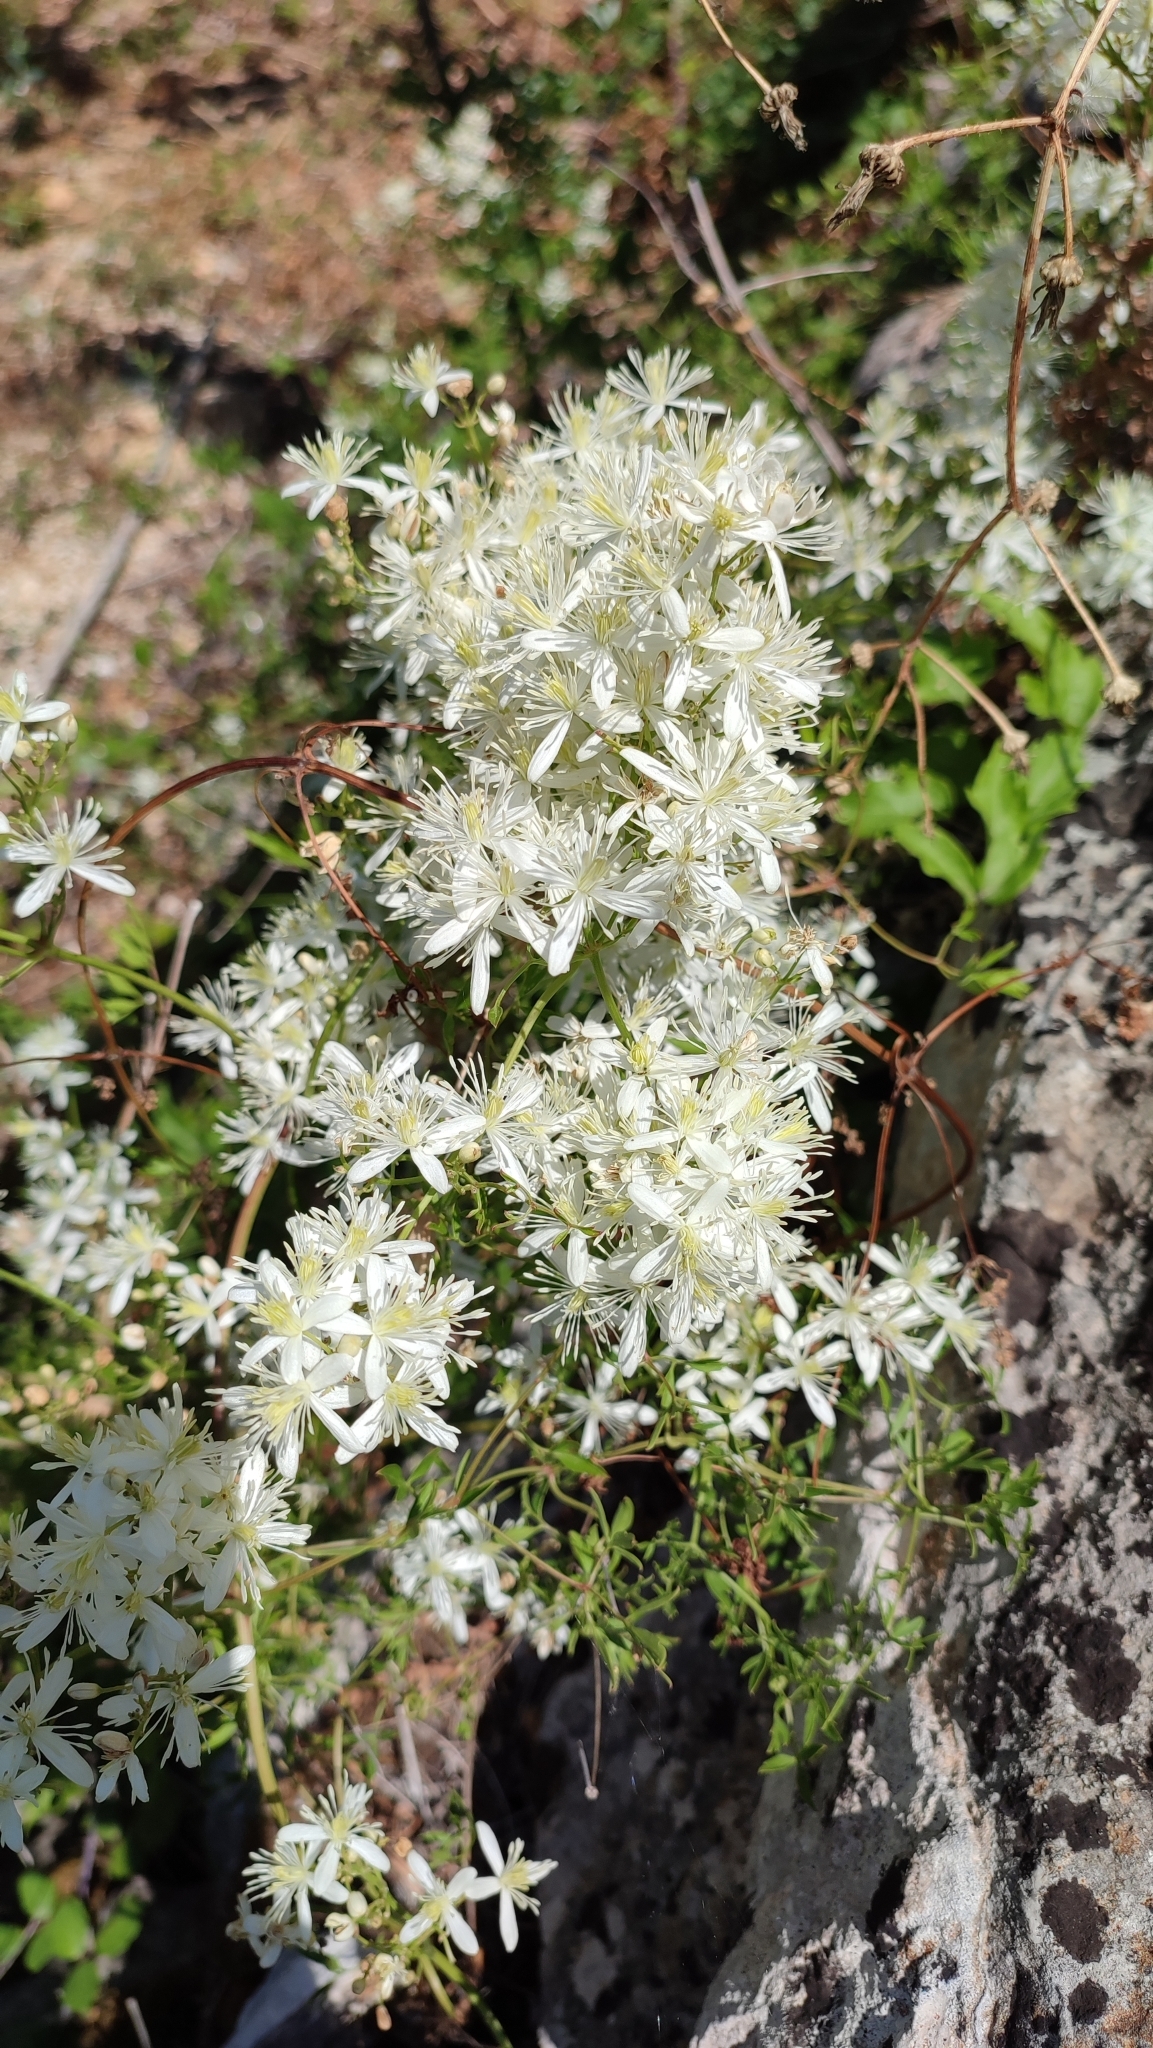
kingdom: Plantae
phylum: Tracheophyta
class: Magnoliopsida
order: Ranunculales
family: Ranunculaceae
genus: Clematis
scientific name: Clematis flammula
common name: Virgin's-bower
